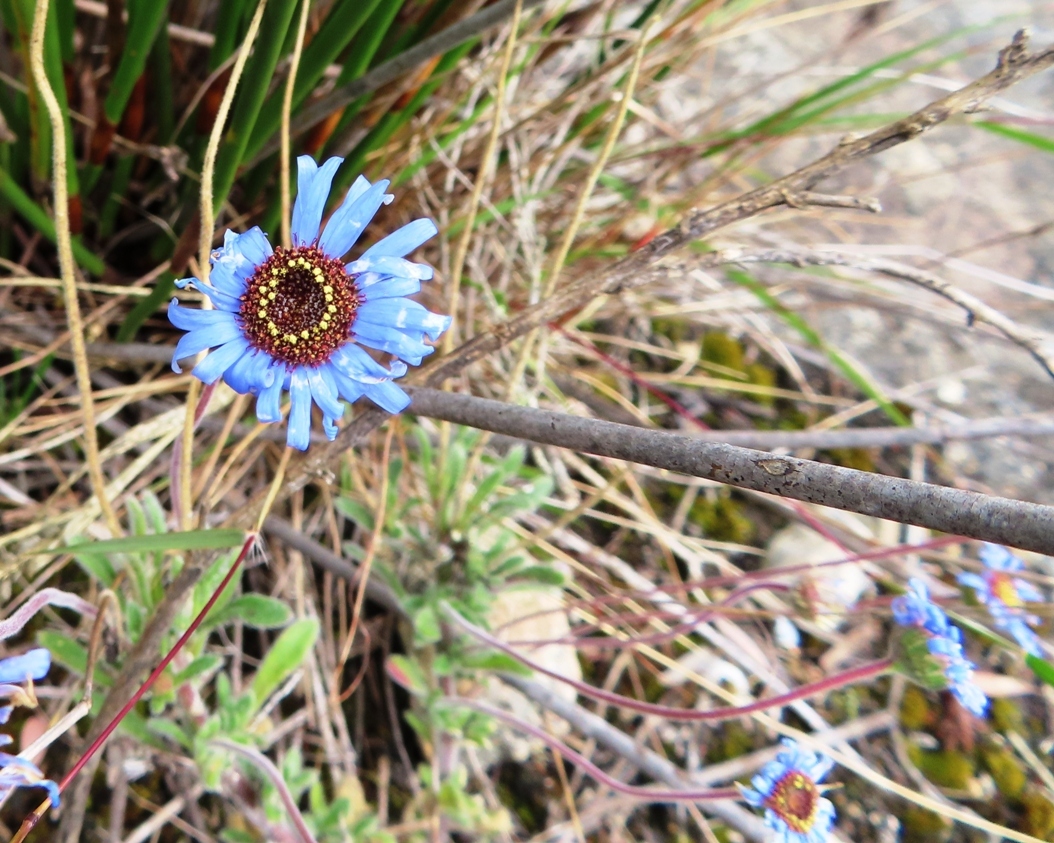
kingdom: Plantae
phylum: Tracheophyta
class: Magnoliopsida
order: Asterales
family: Asteraceae
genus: Felicia
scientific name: Felicia amoena
